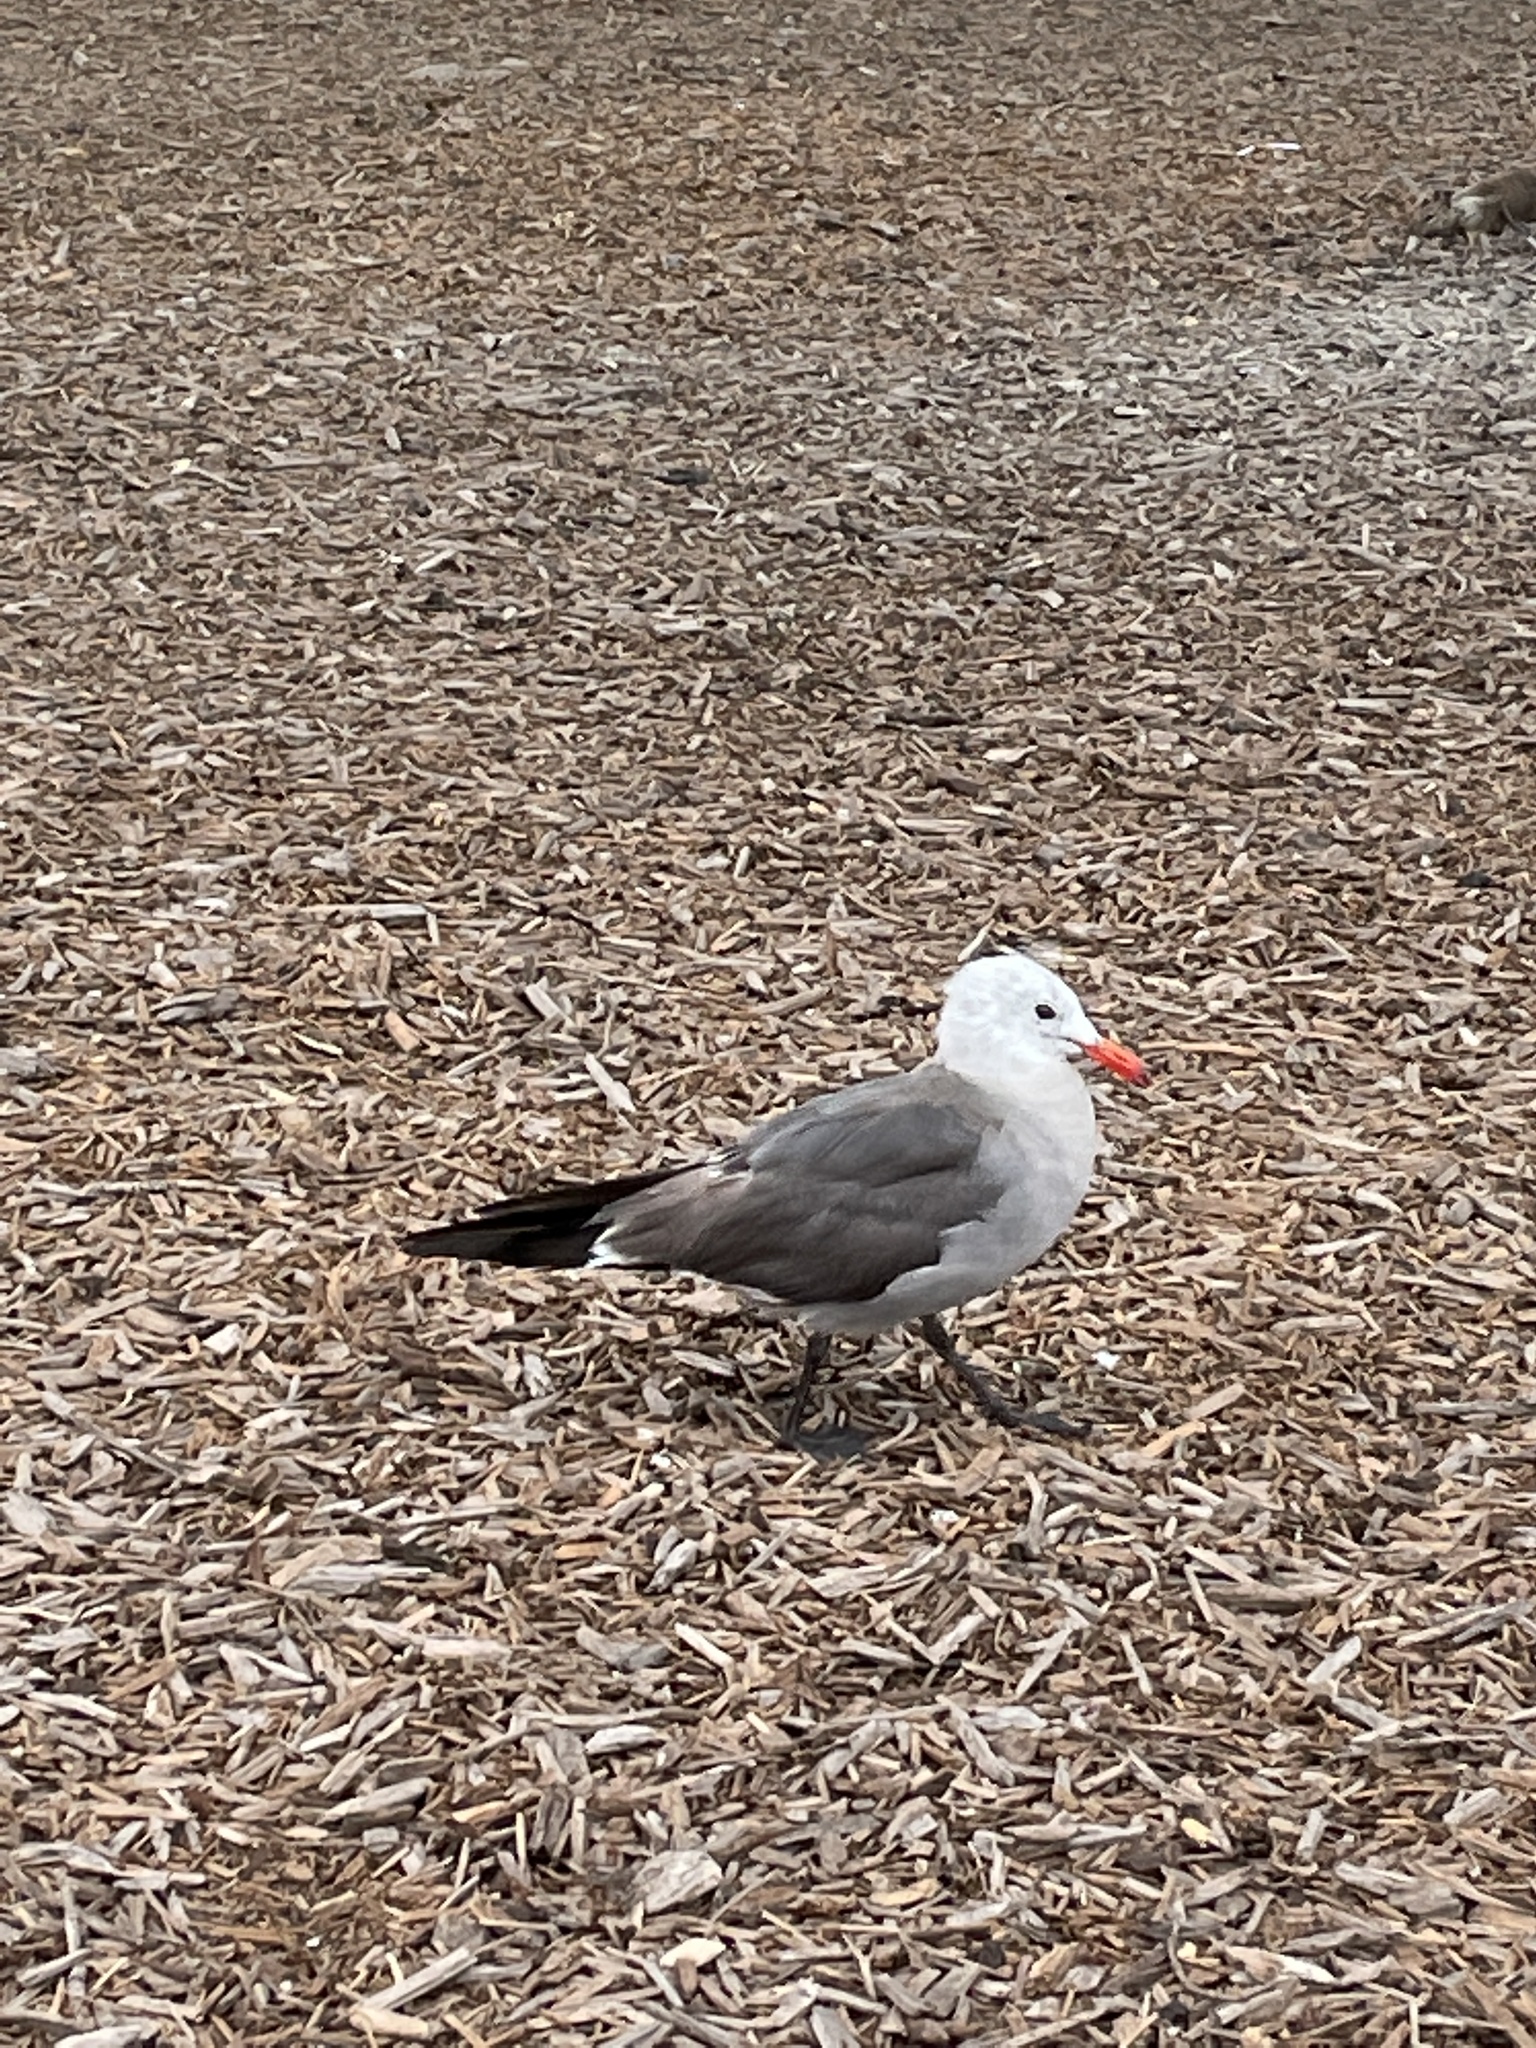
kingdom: Animalia
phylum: Chordata
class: Aves
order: Charadriiformes
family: Laridae
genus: Larus
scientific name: Larus heermanni
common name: Heermann's gull
